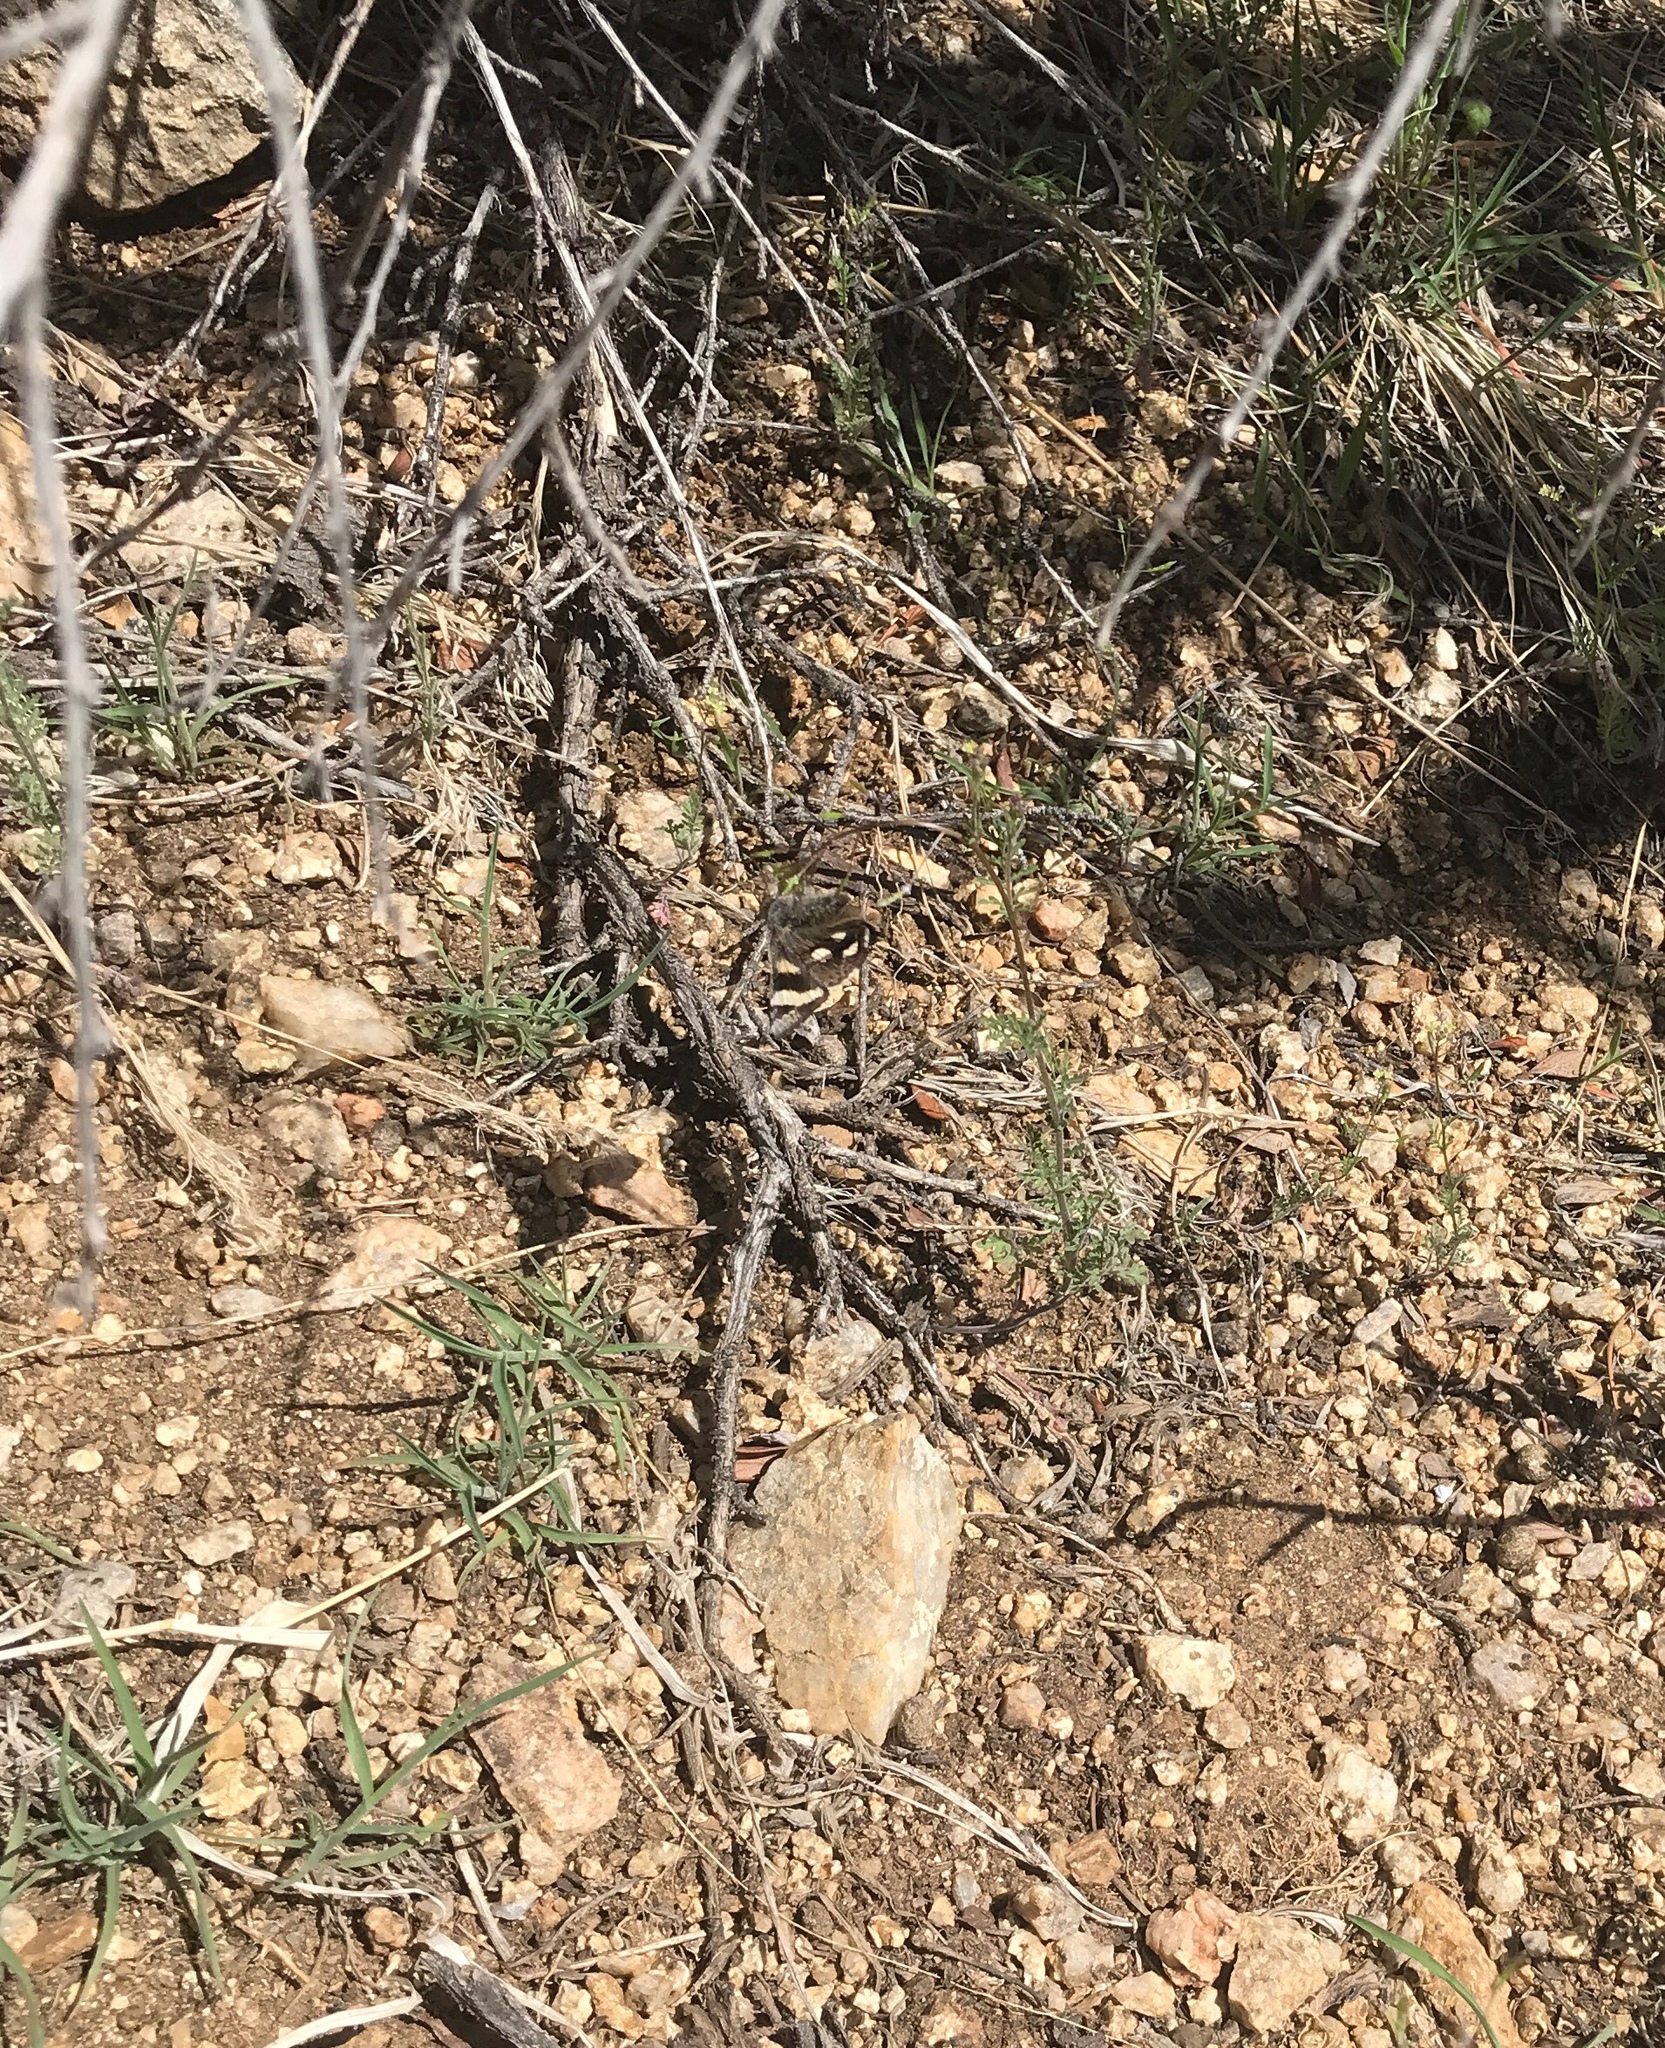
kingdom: Animalia
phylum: Arthropoda
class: Insecta
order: Lepidoptera
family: Erebidae
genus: Litocala
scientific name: Litocala sexsignata
